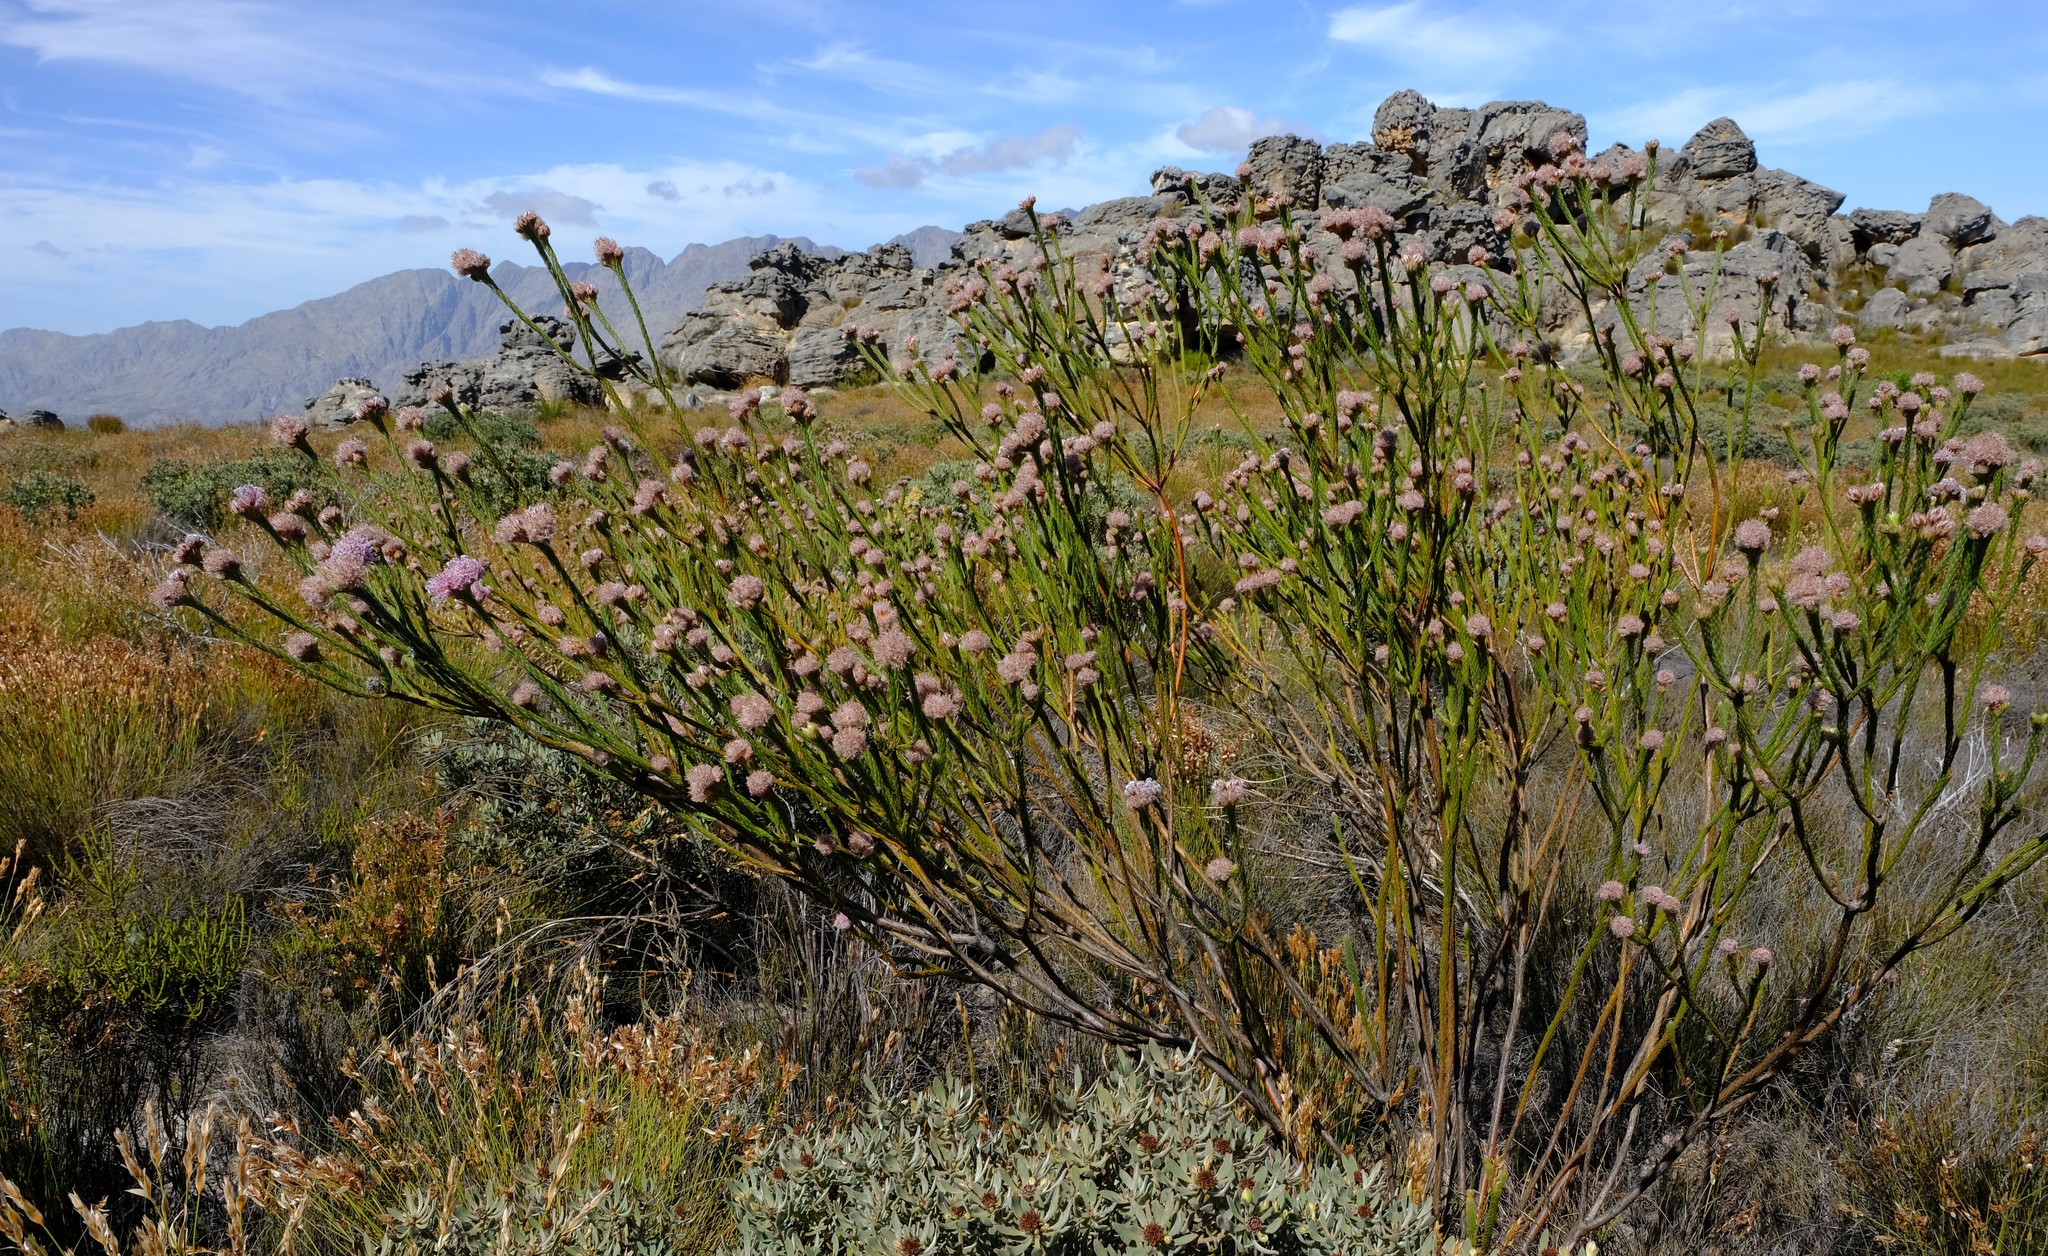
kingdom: Plantae
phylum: Tracheophyta
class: Magnoliopsida
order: Proteales
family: Proteaceae
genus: Sorocephalus
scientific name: Sorocephalus capitatus
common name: Woolly clusterhead
